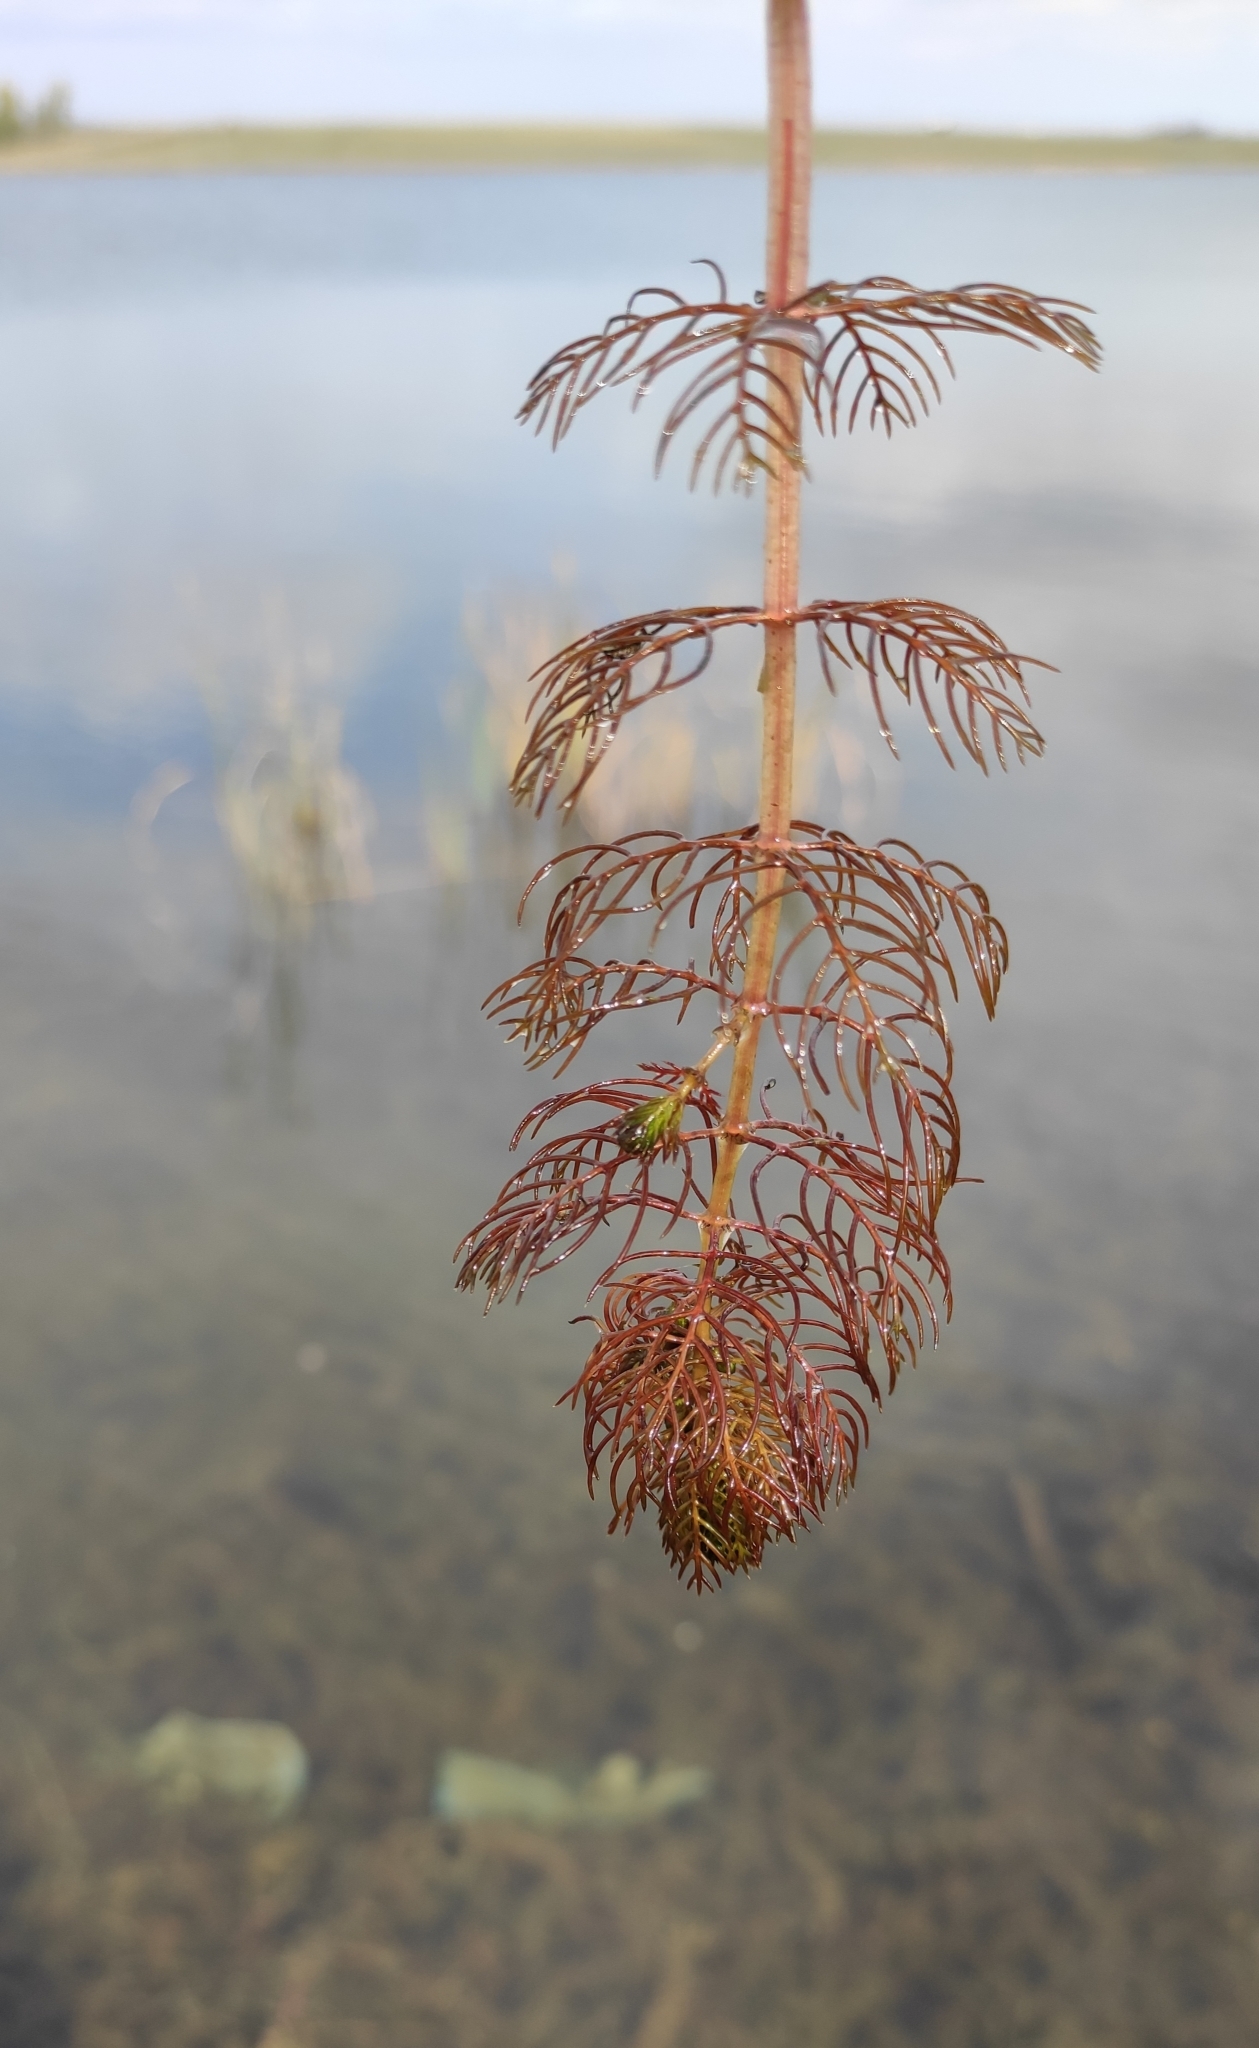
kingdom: Plantae
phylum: Tracheophyta
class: Magnoliopsida
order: Saxifragales
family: Haloragaceae
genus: Myriophyllum
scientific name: Myriophyllum sibiricum
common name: Siberian water-milfoil
